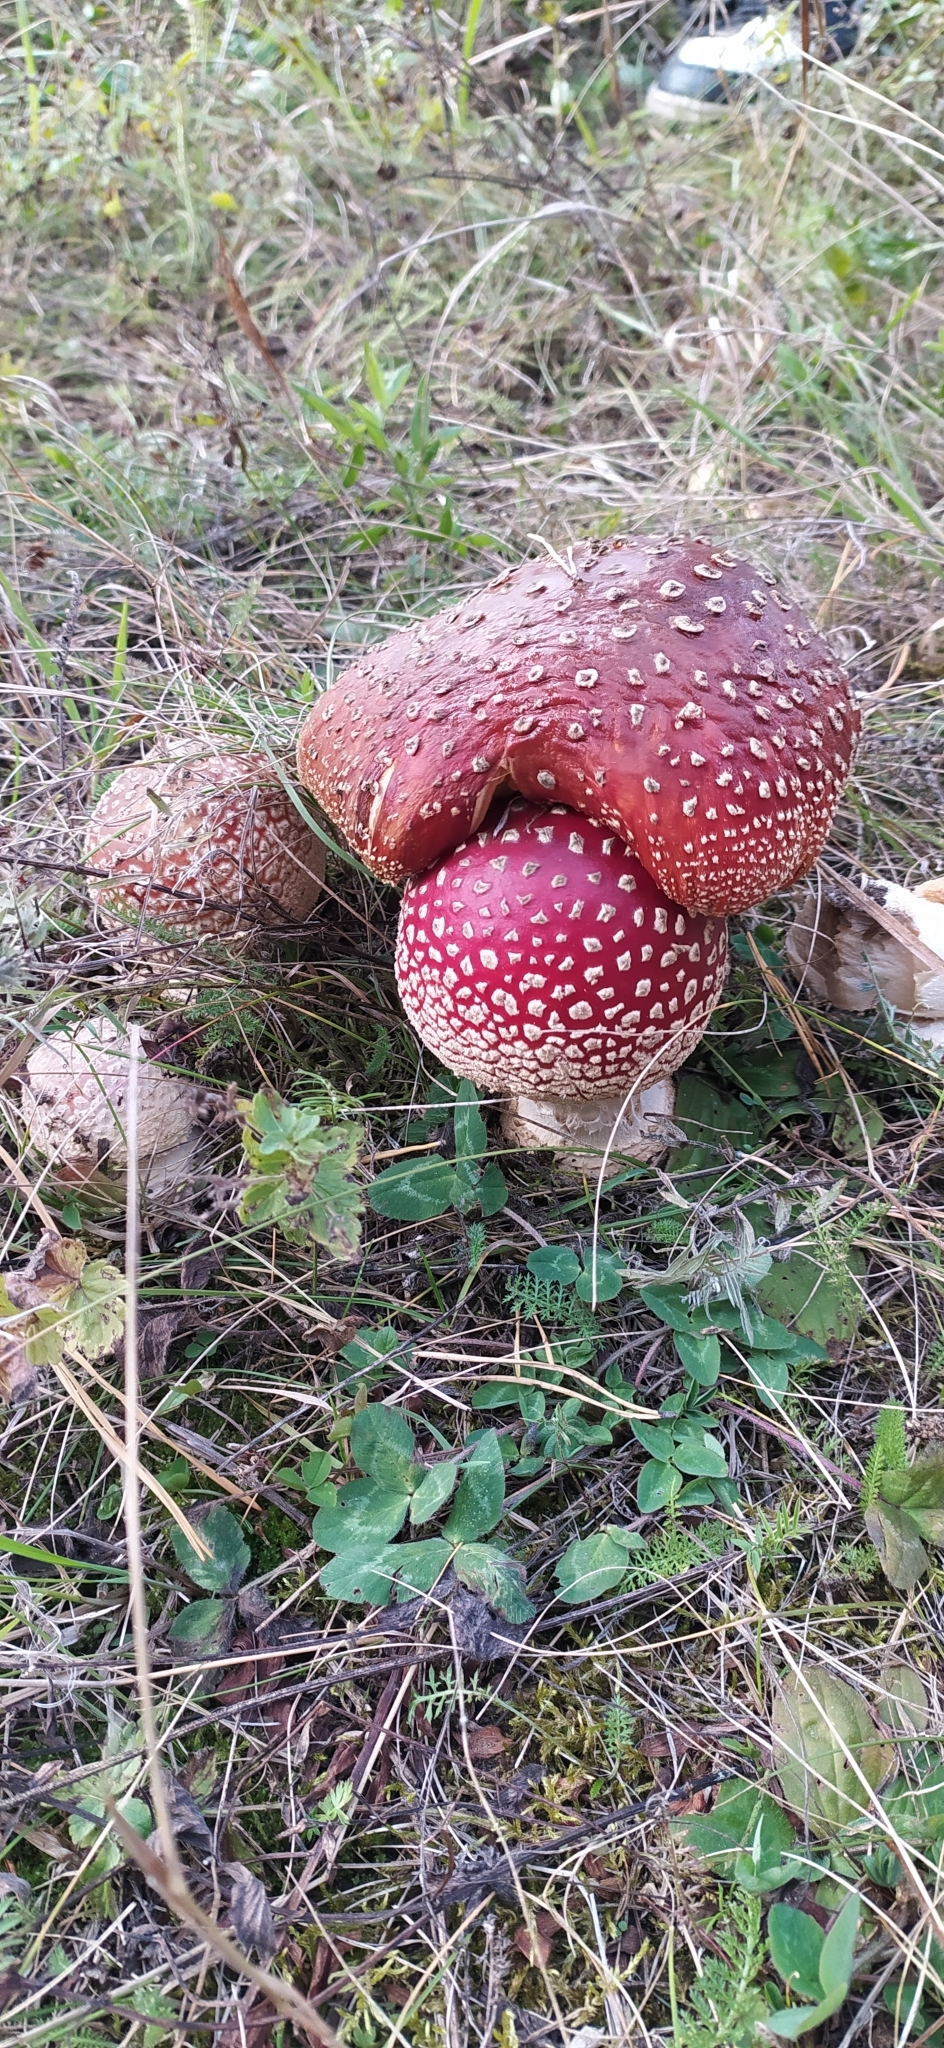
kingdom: Fungi
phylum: Basidiomycota
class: Agaricomycetes
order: Agaricales
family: Amanitaceae
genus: Amanita
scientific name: Amanita muscaria
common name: Fly agaric
